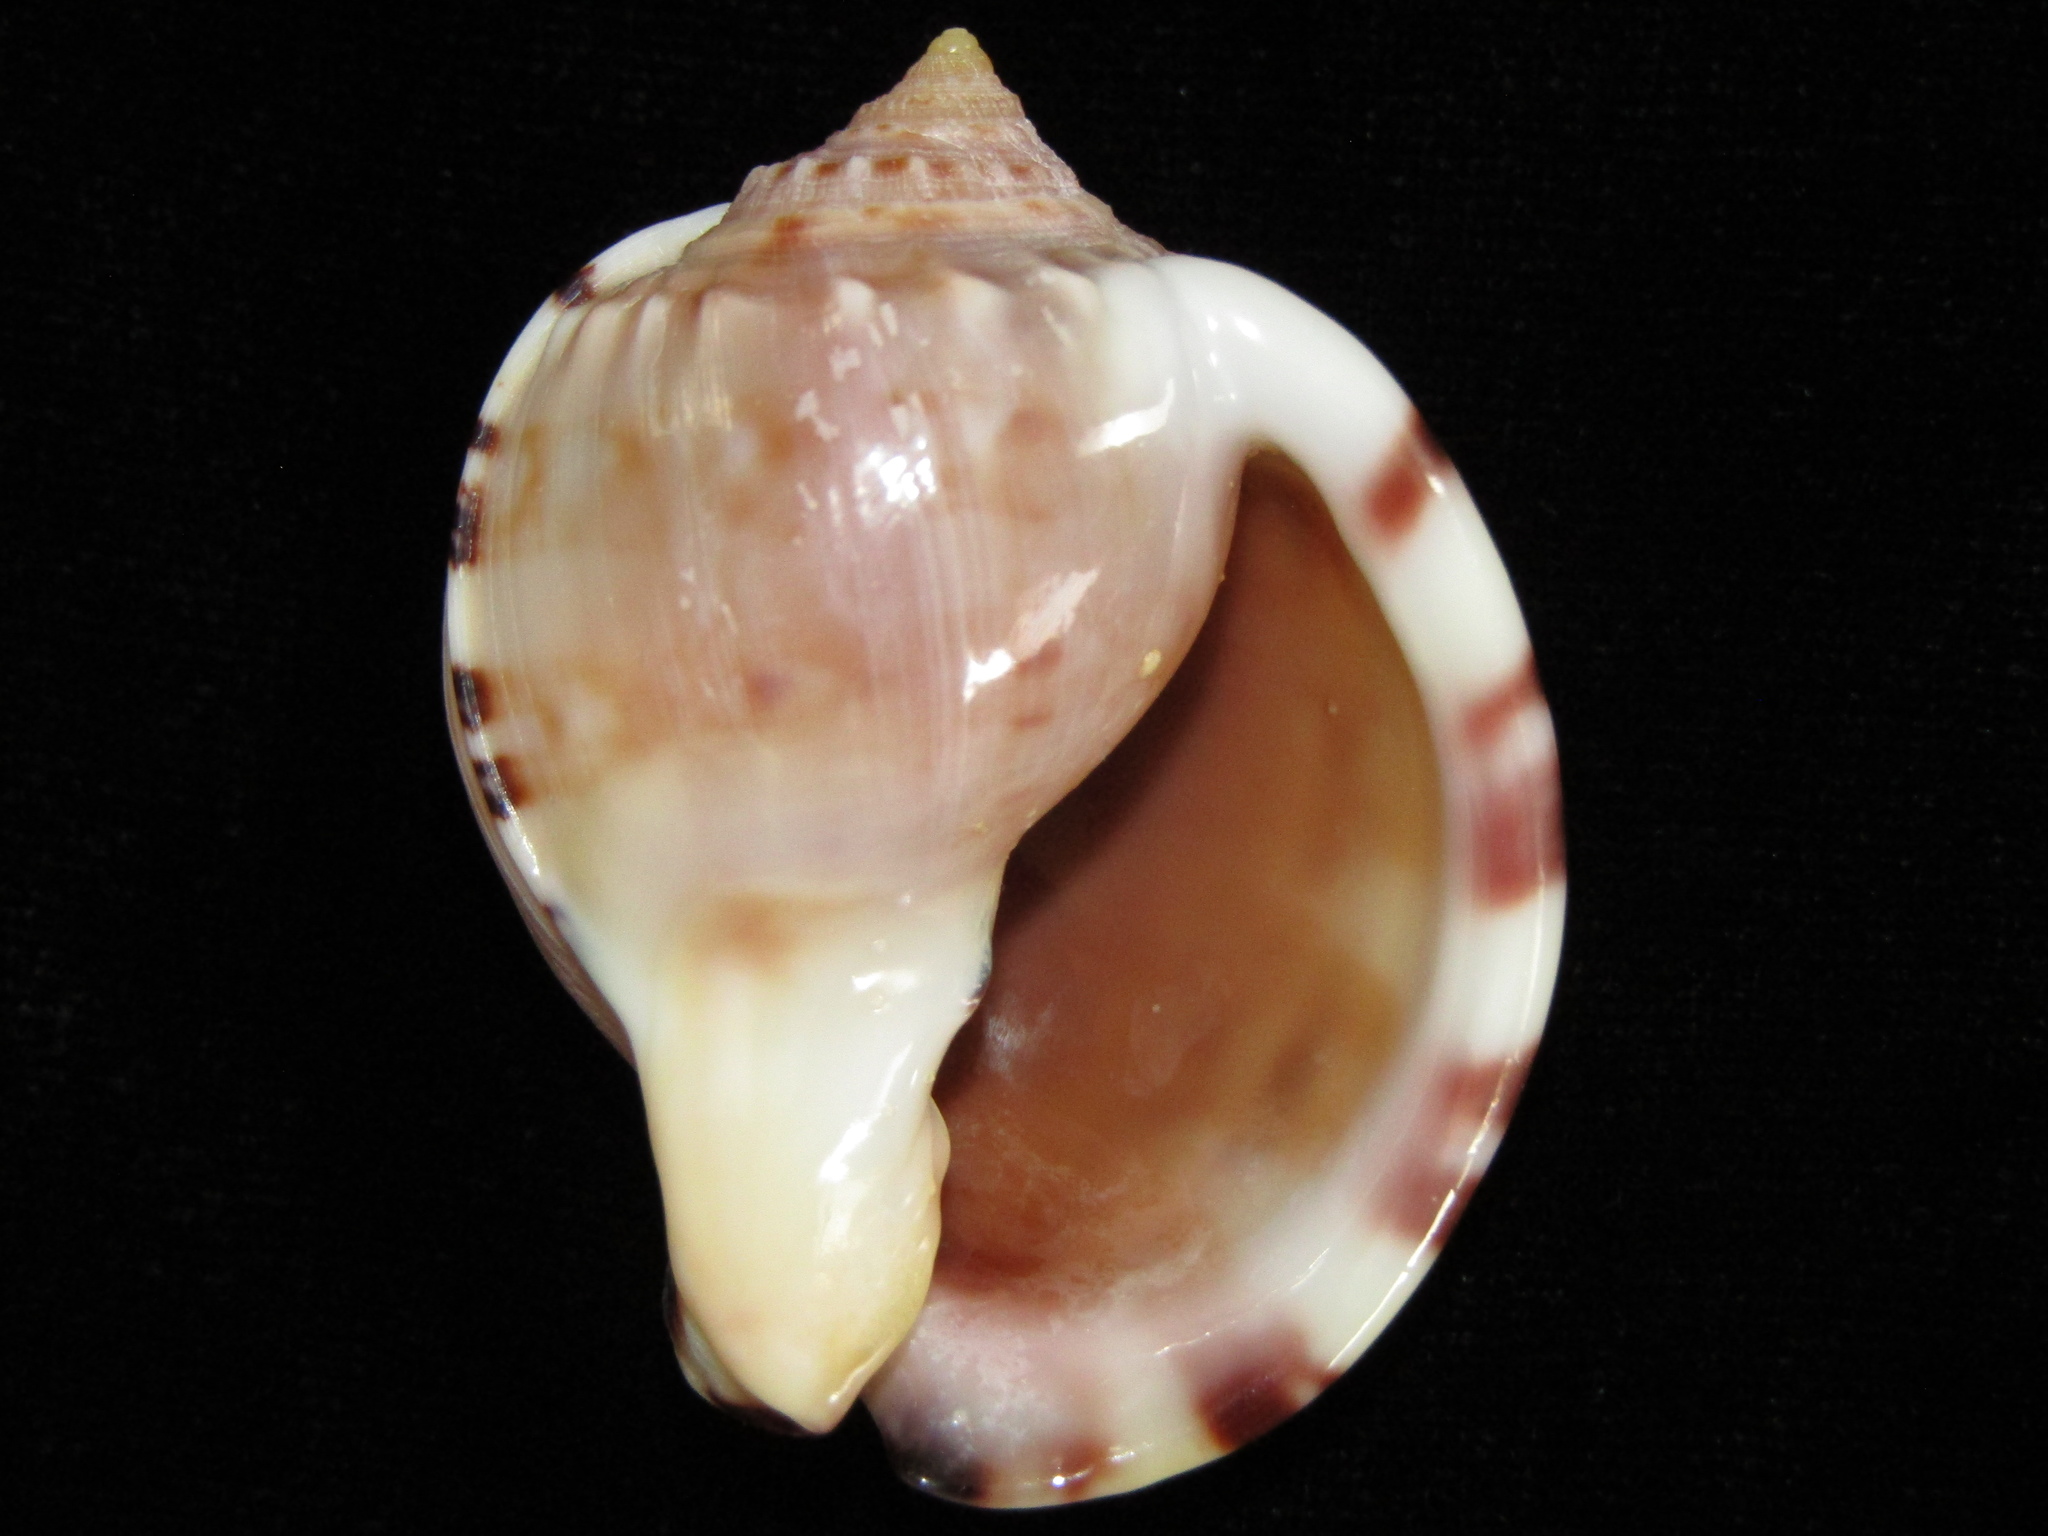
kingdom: Animalia
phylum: Mollusca
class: Gastropoda
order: Littorinimorpha
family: Cassidae
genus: Semicassis
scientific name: Semicassis pyrum
